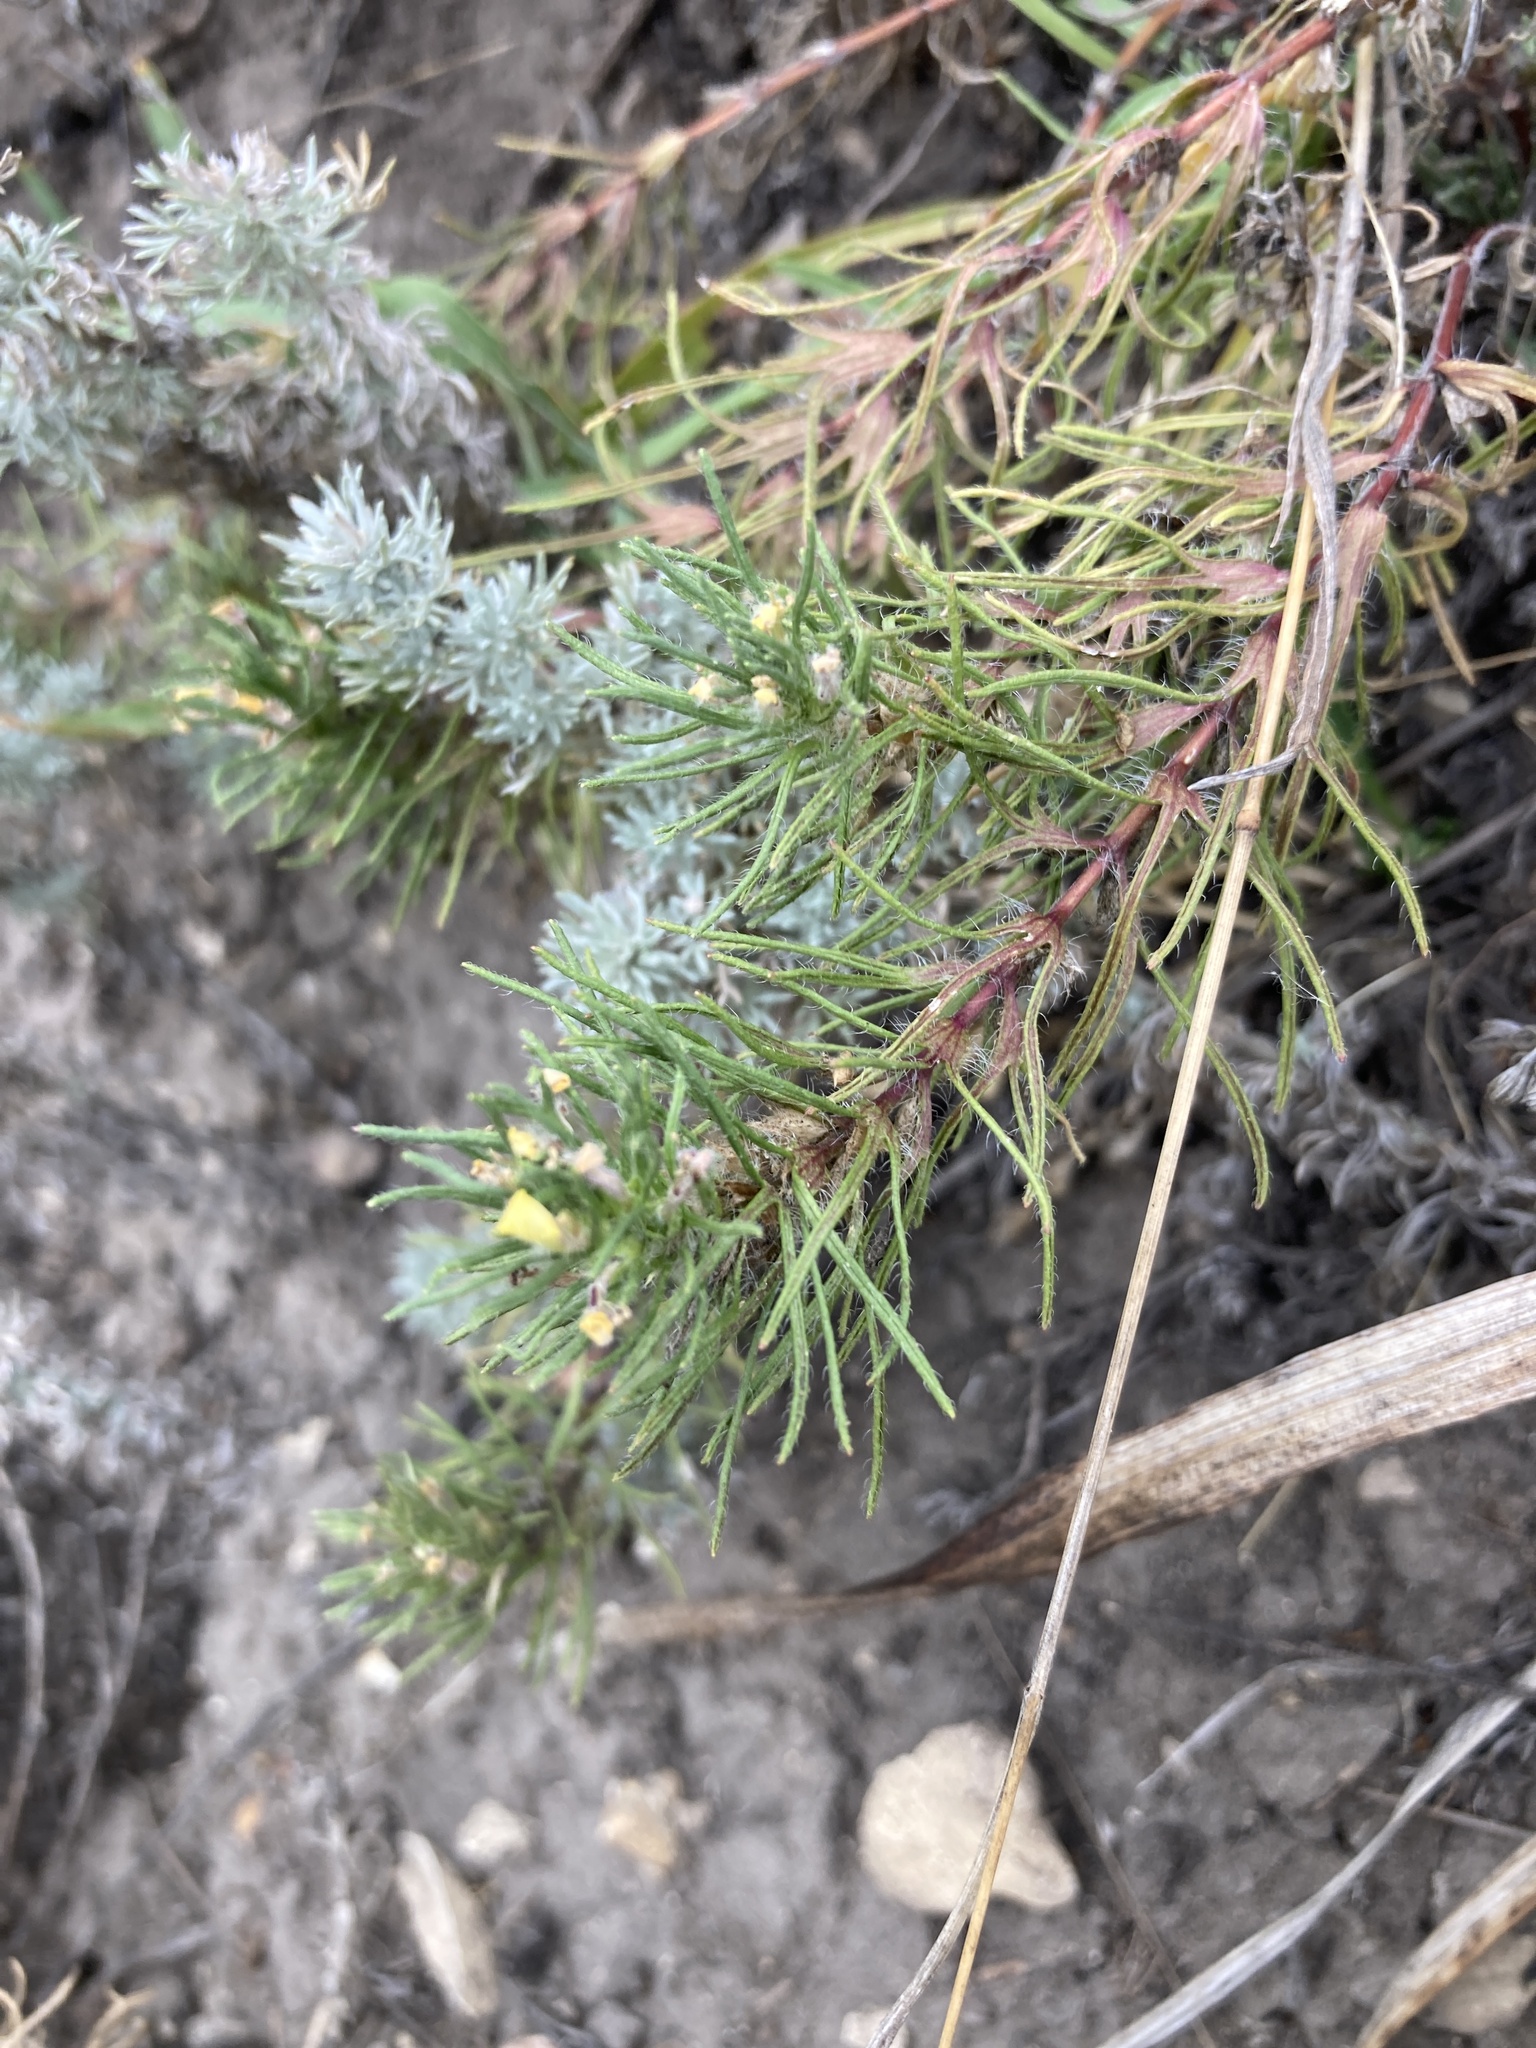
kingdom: Plantae
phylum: Tracheophyta
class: Magnoliopsida
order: Lamiales
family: Lamiaceae
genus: Ajuga
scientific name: Ajuga chamaepitys
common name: Ground-pine
